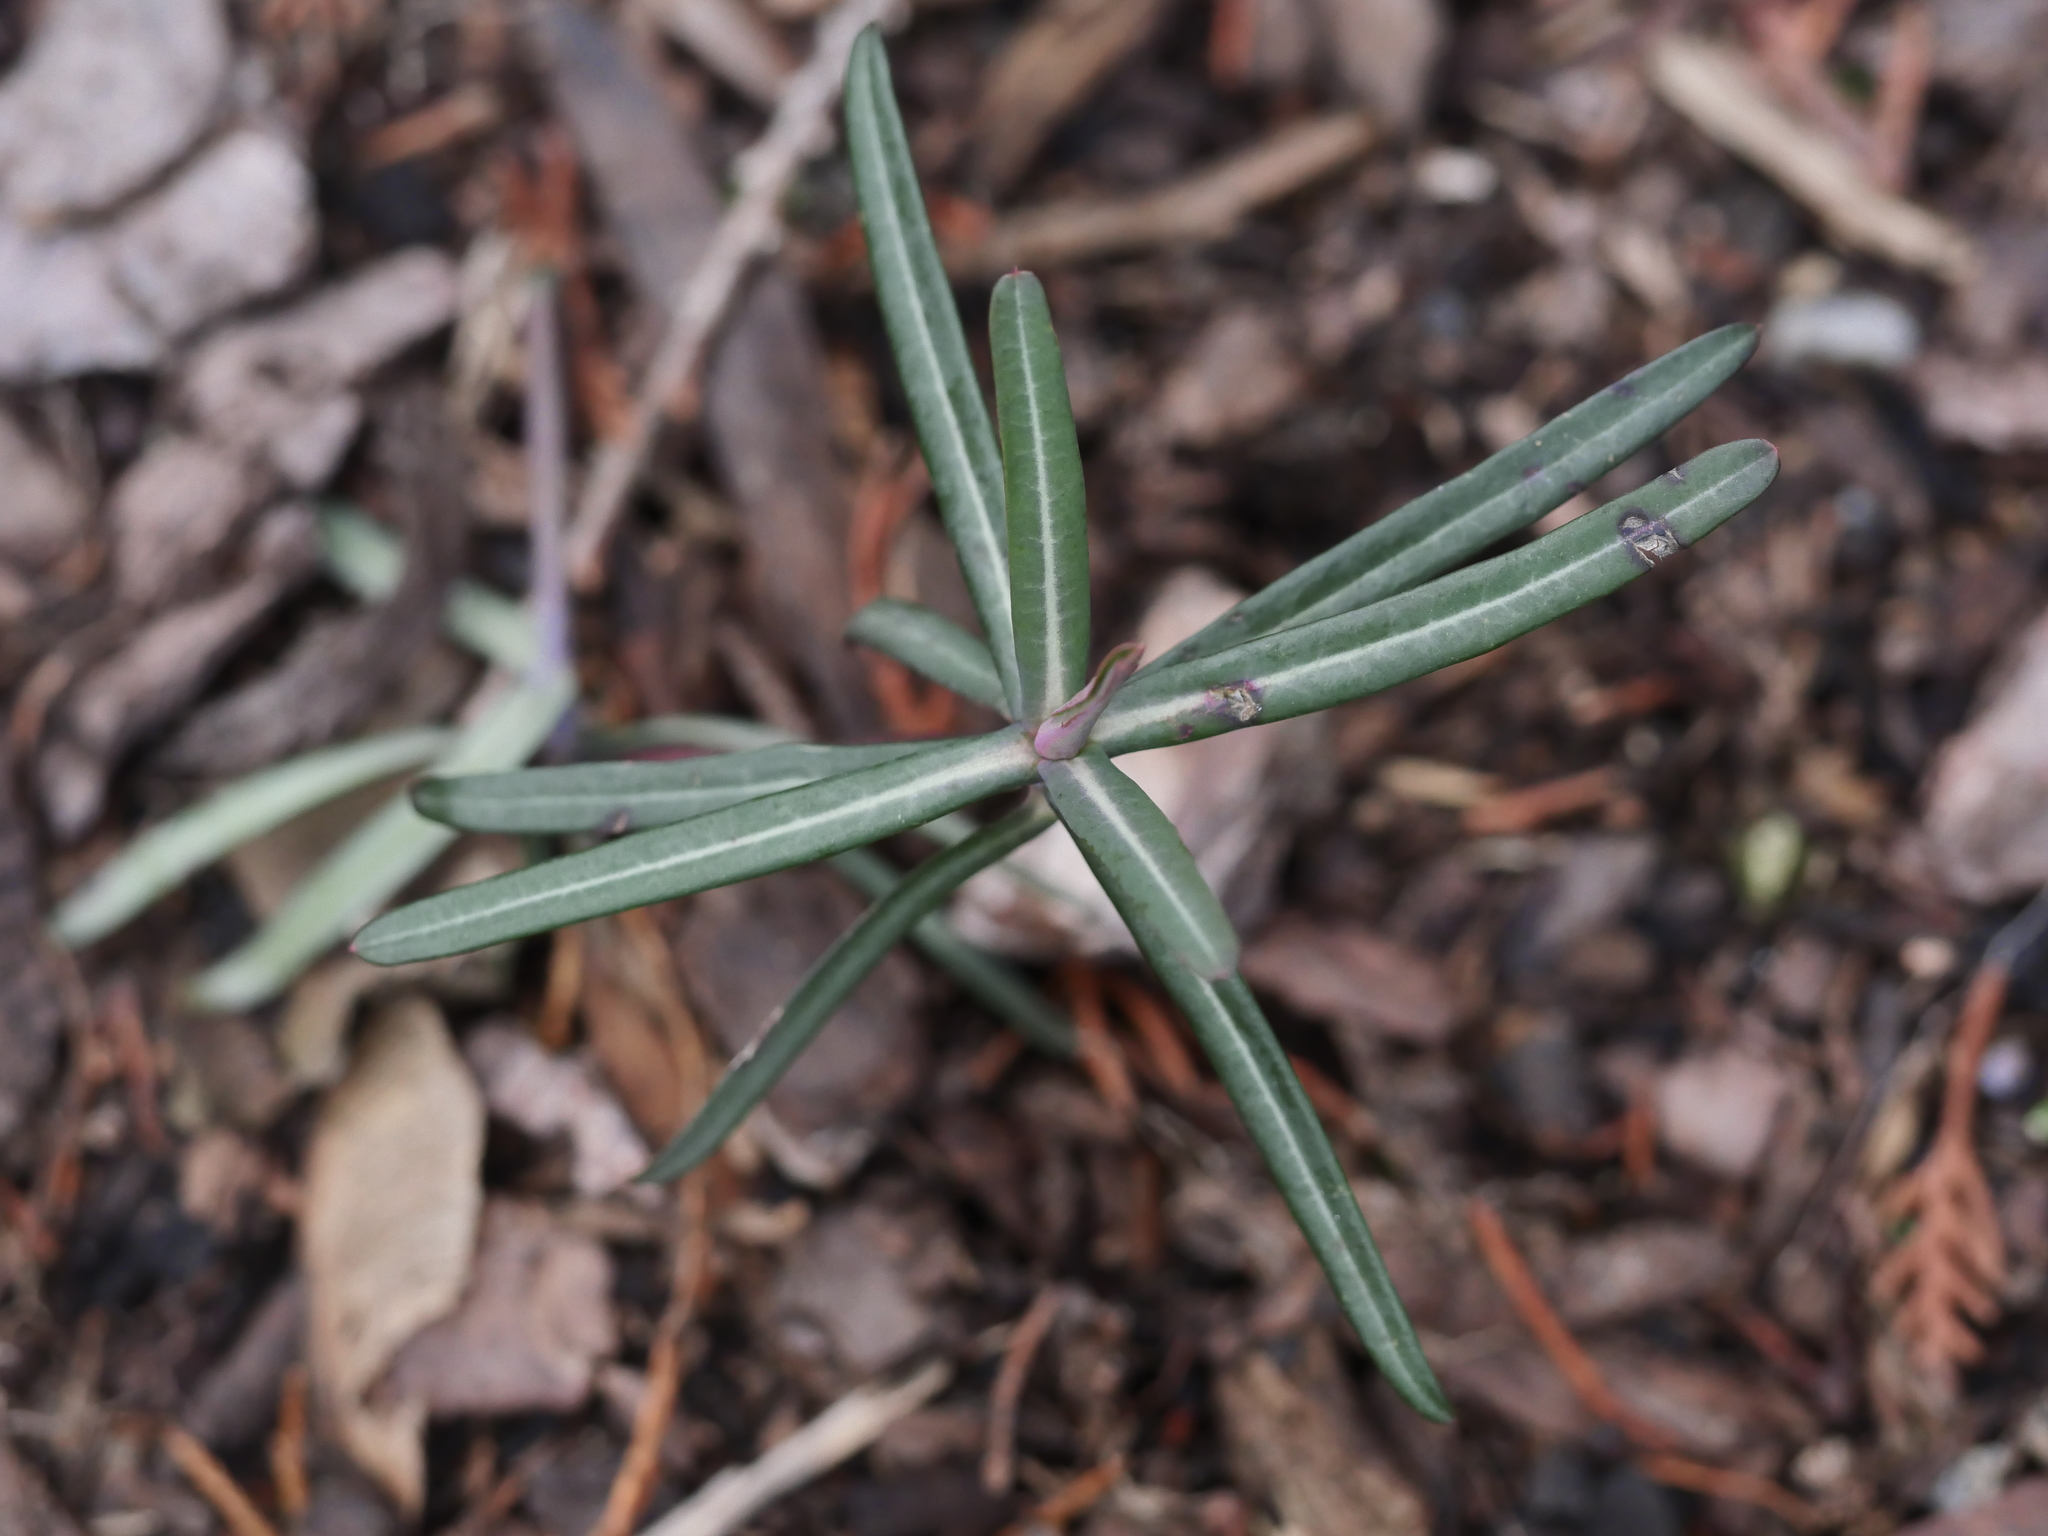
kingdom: Plantae
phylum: Tracheophyta
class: Magnoliopsida
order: Malpighiales
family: Euphorbiaceae
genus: Euphorbia
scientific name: Euphorbia lathyris
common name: Caper spurge
